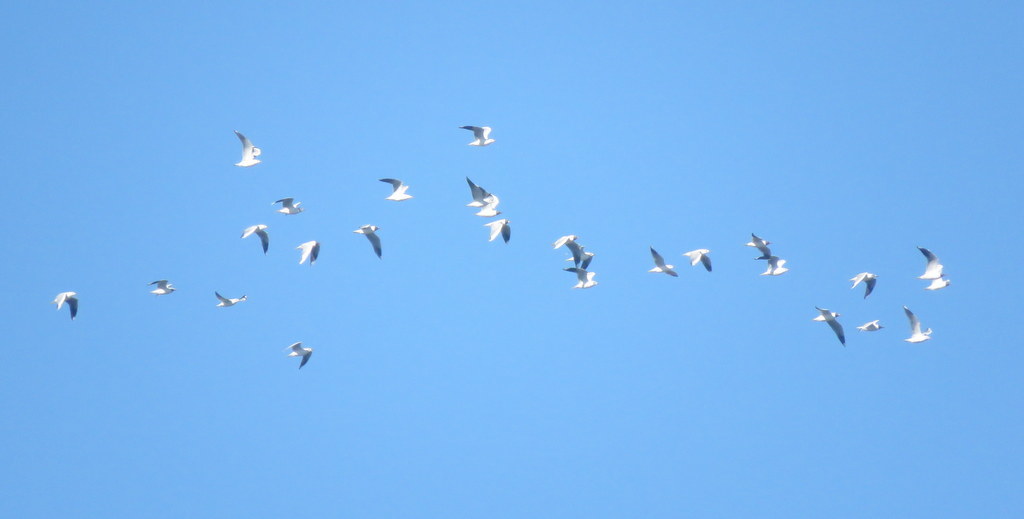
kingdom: Animalia
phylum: Chordata
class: Aves
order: Charadriiformes
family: Laridae
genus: Chroicocephalus
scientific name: Chroicocephalus maculipennis
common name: Brown-hooded gull
